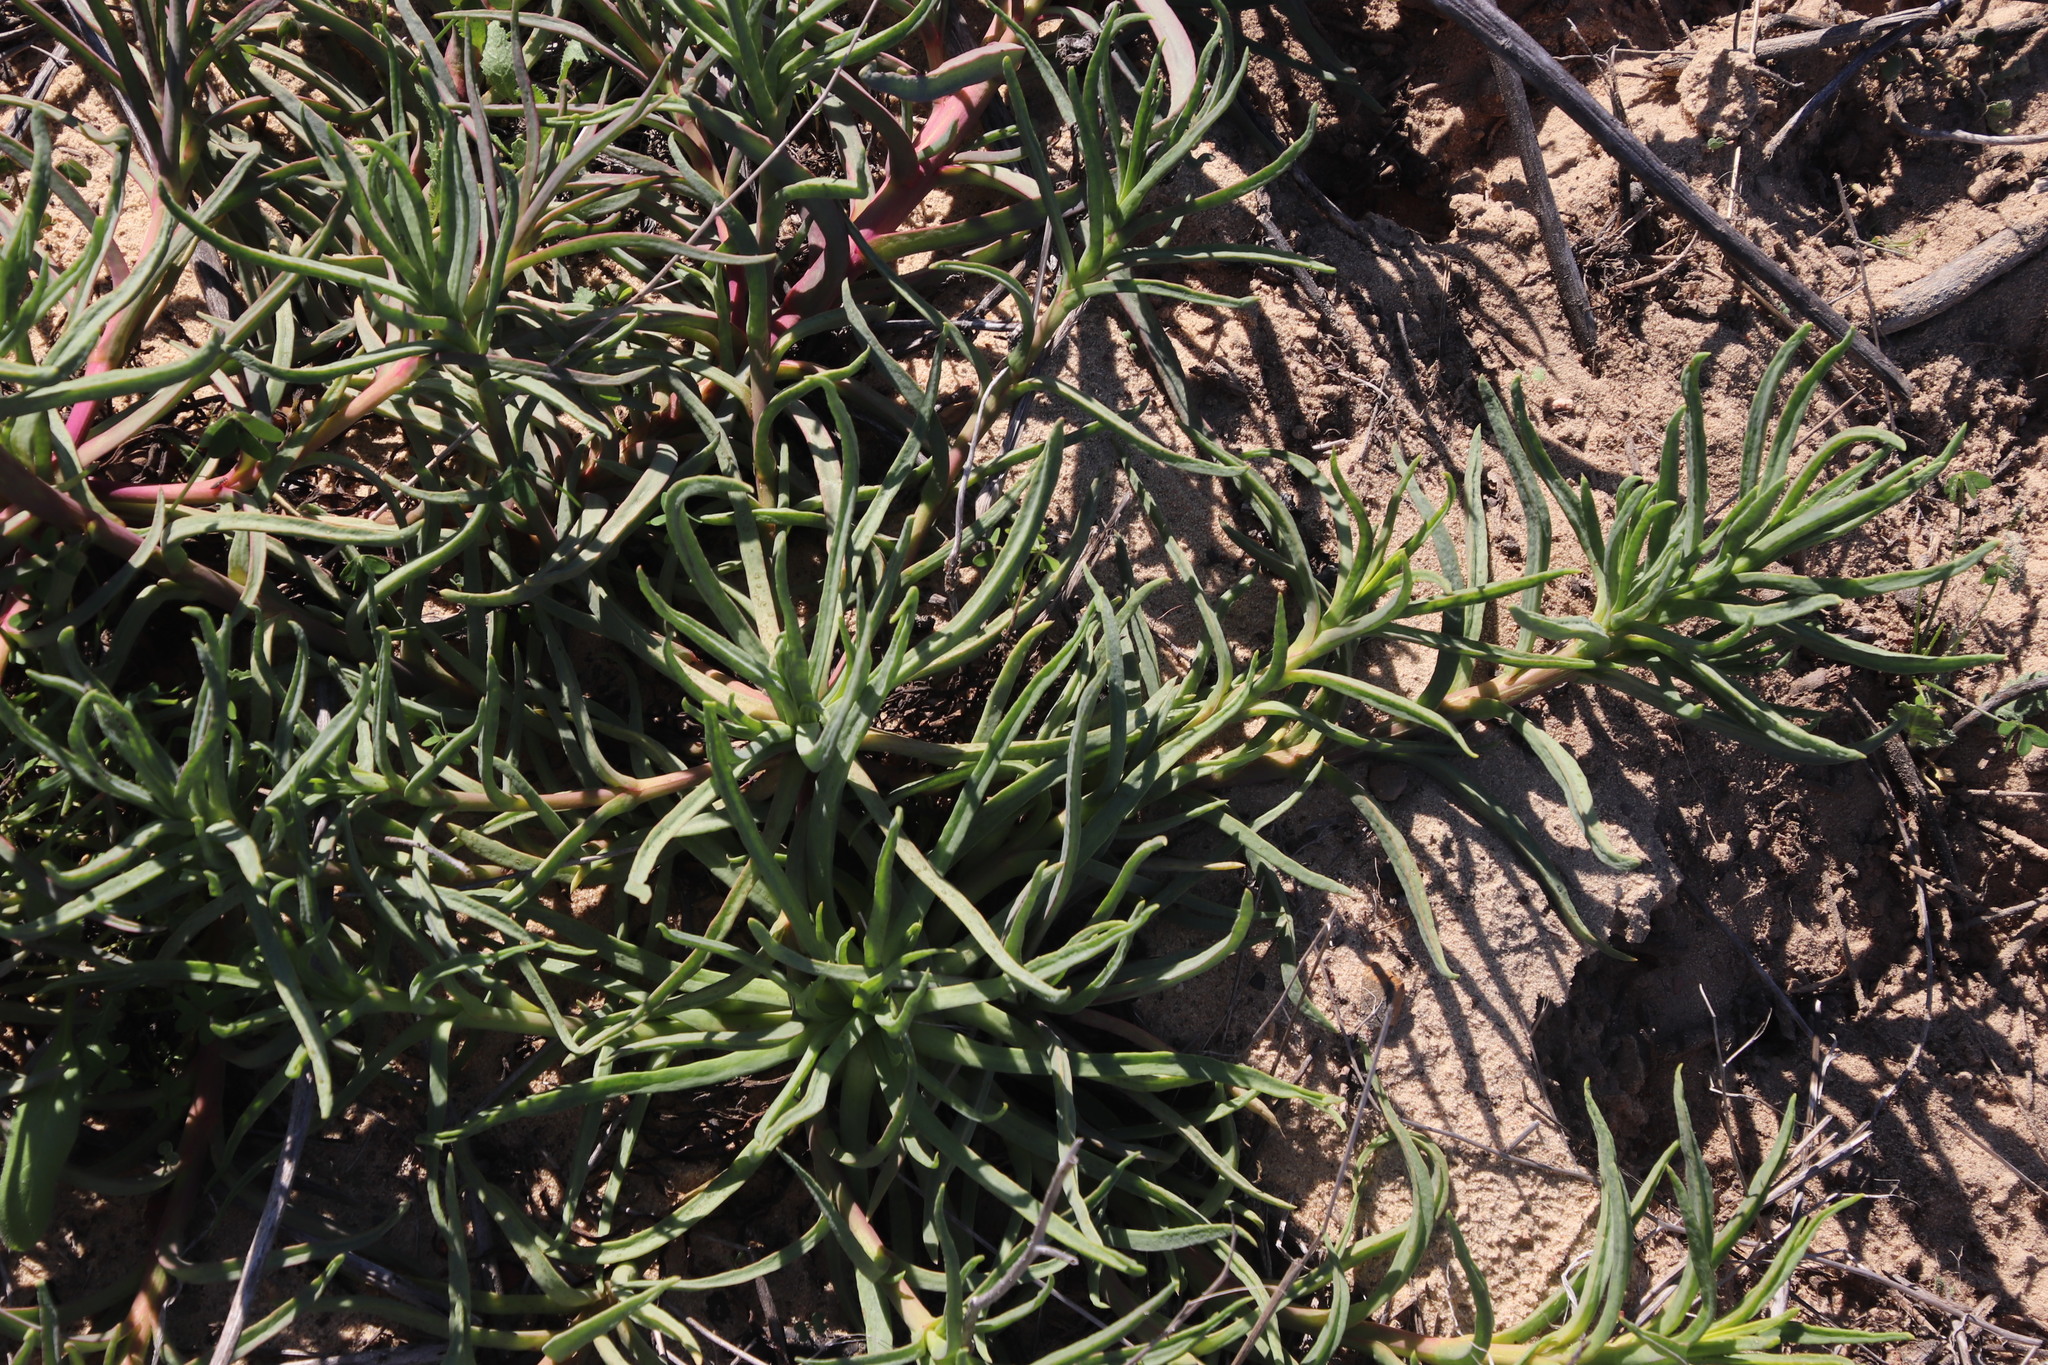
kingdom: Plantae
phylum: Tracheophyta
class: Magnoliopsida
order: Caryophyllales
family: Aizoaceae
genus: Conicosia
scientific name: Conicosia pugioniformis
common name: Narrow-leaved iceplant
